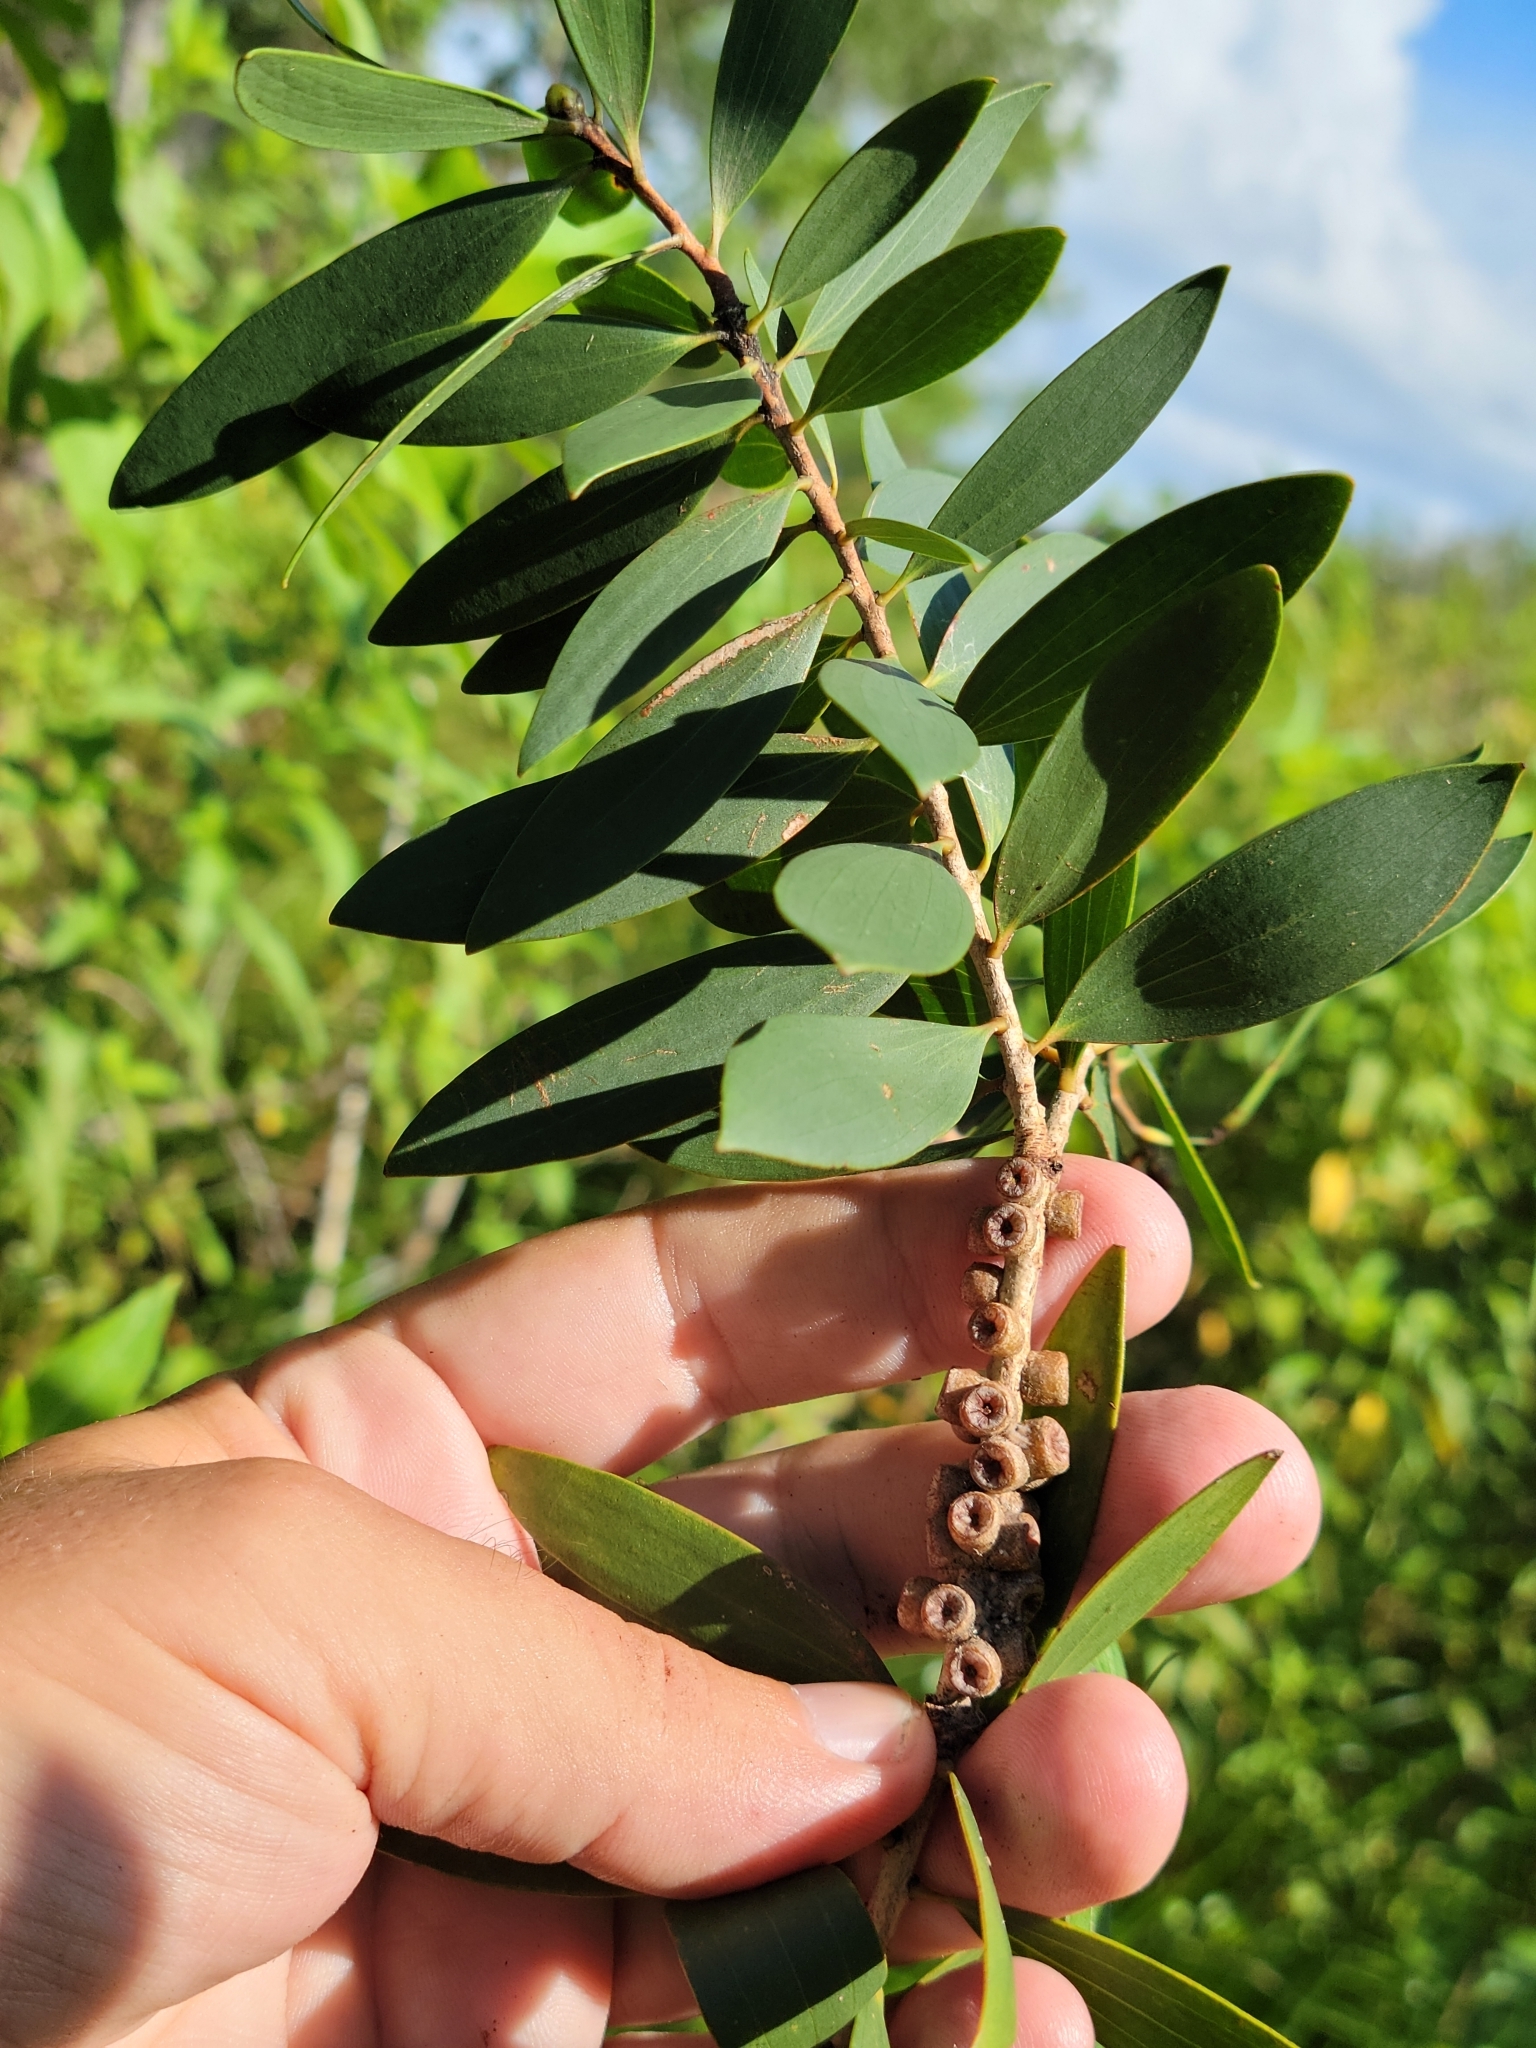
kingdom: Plantae
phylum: Tracheophyta
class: Magnoliopsida
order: Myrtales
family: Myrtaceae
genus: Melaleuca
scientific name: Melaleuca quinquenervia
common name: Punktree
